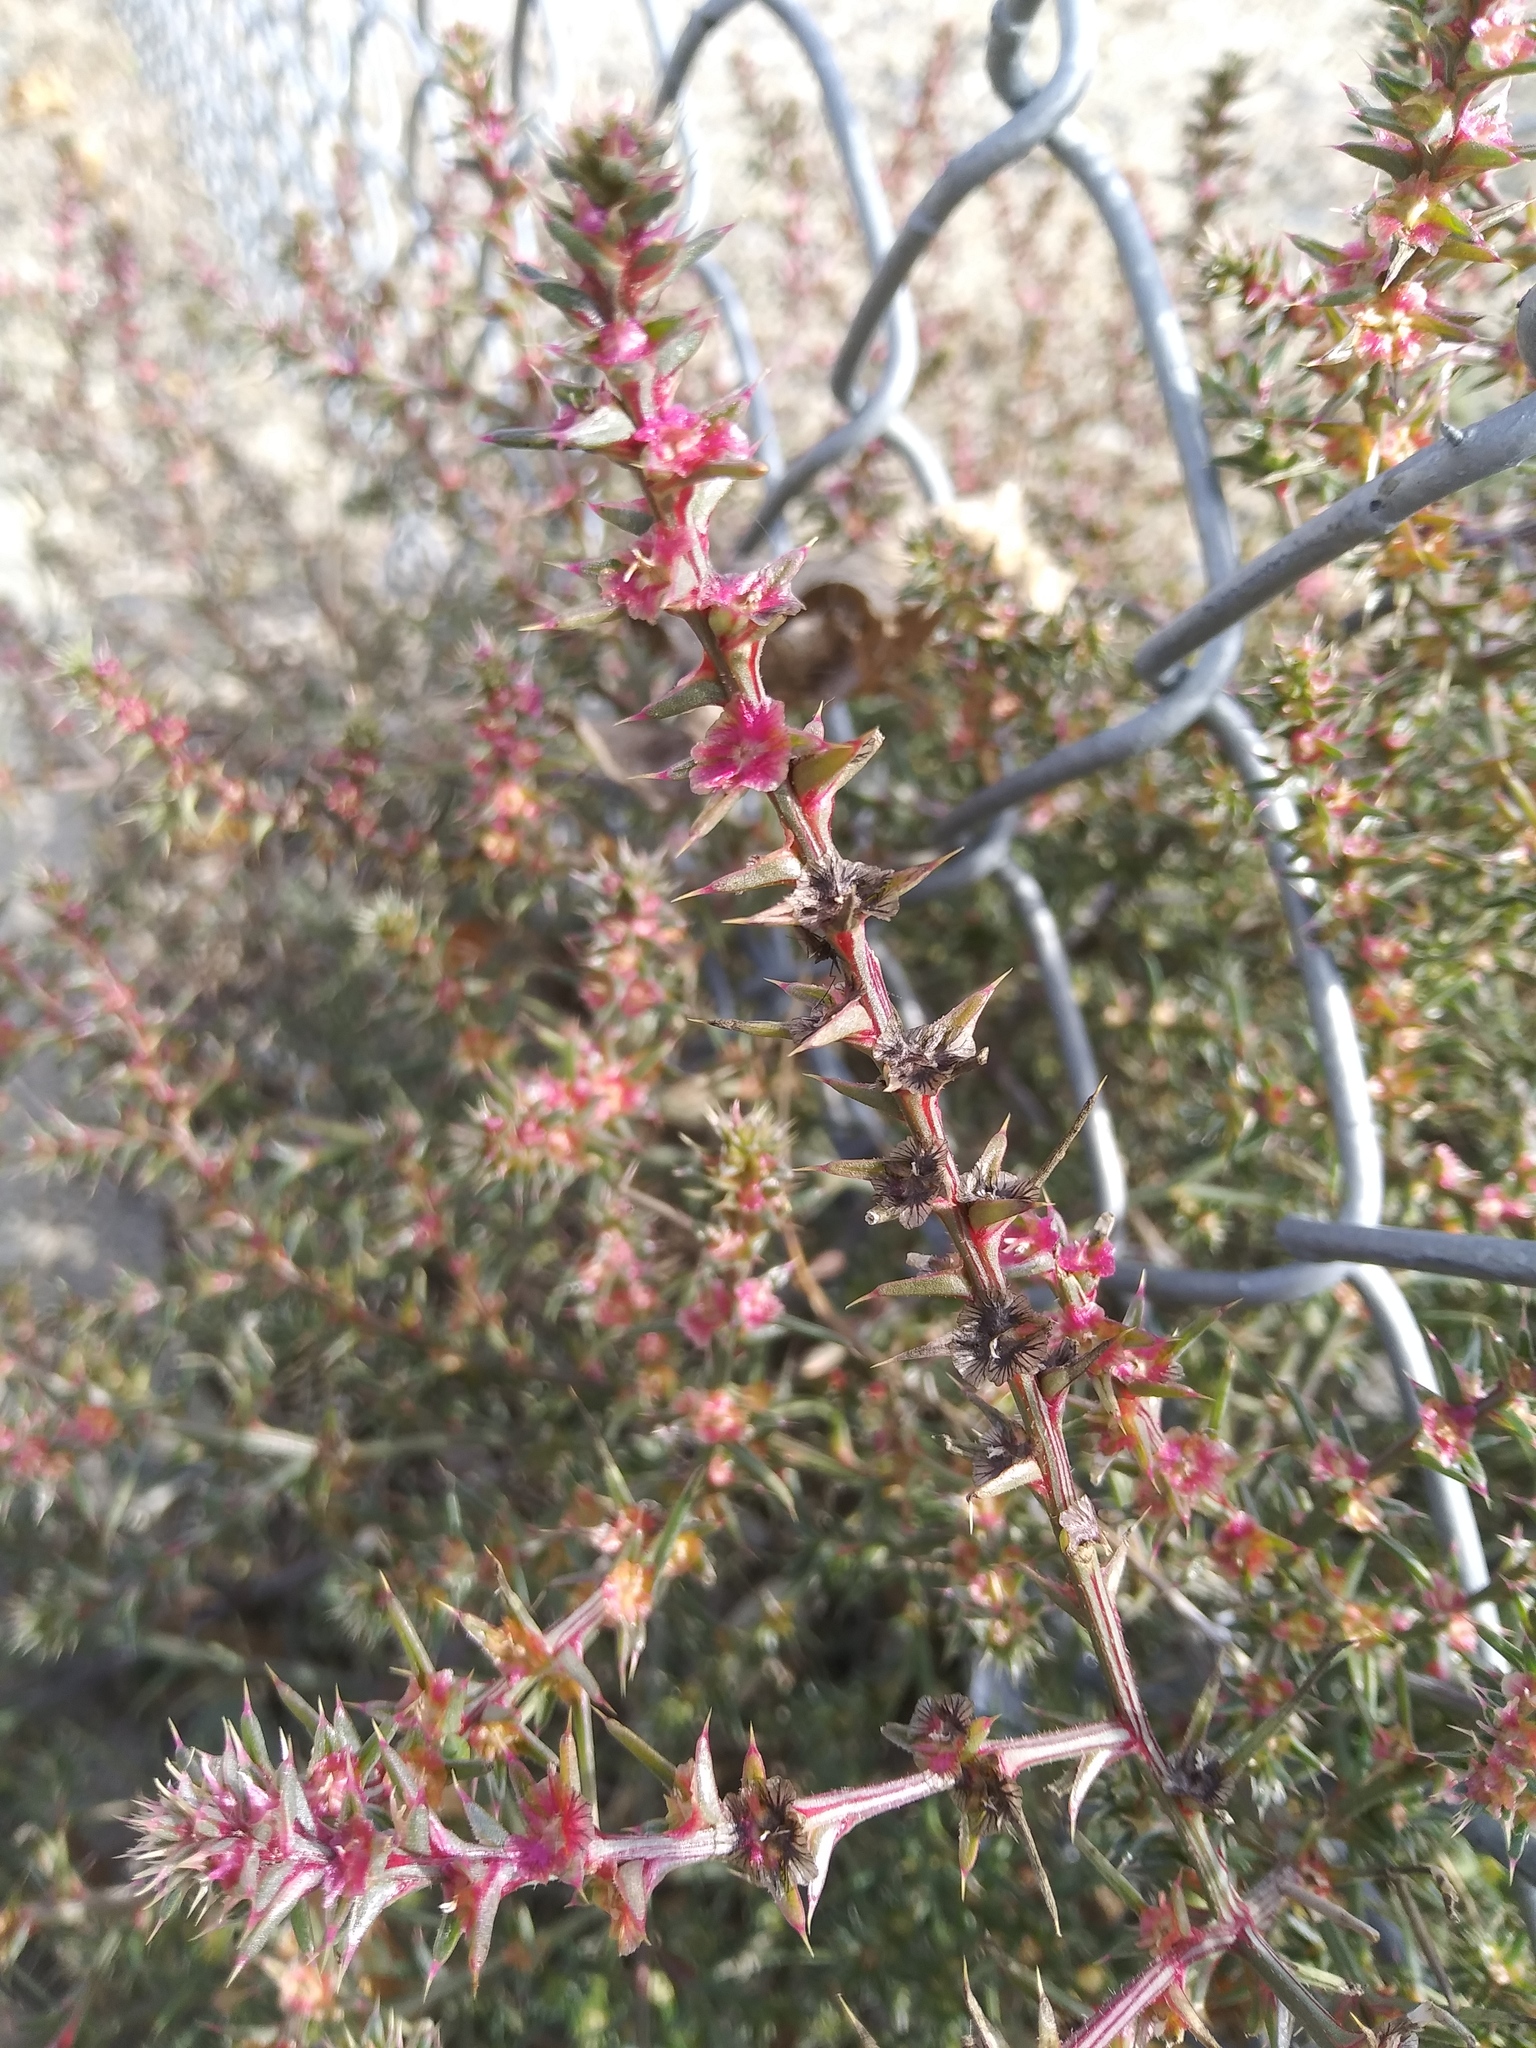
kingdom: Plantae
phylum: Tracheophyta
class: Magnoliopsida
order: Caryophyllales
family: Amaranthaceae
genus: Salsola
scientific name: Salsola tragus
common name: Prickly russian thistle
